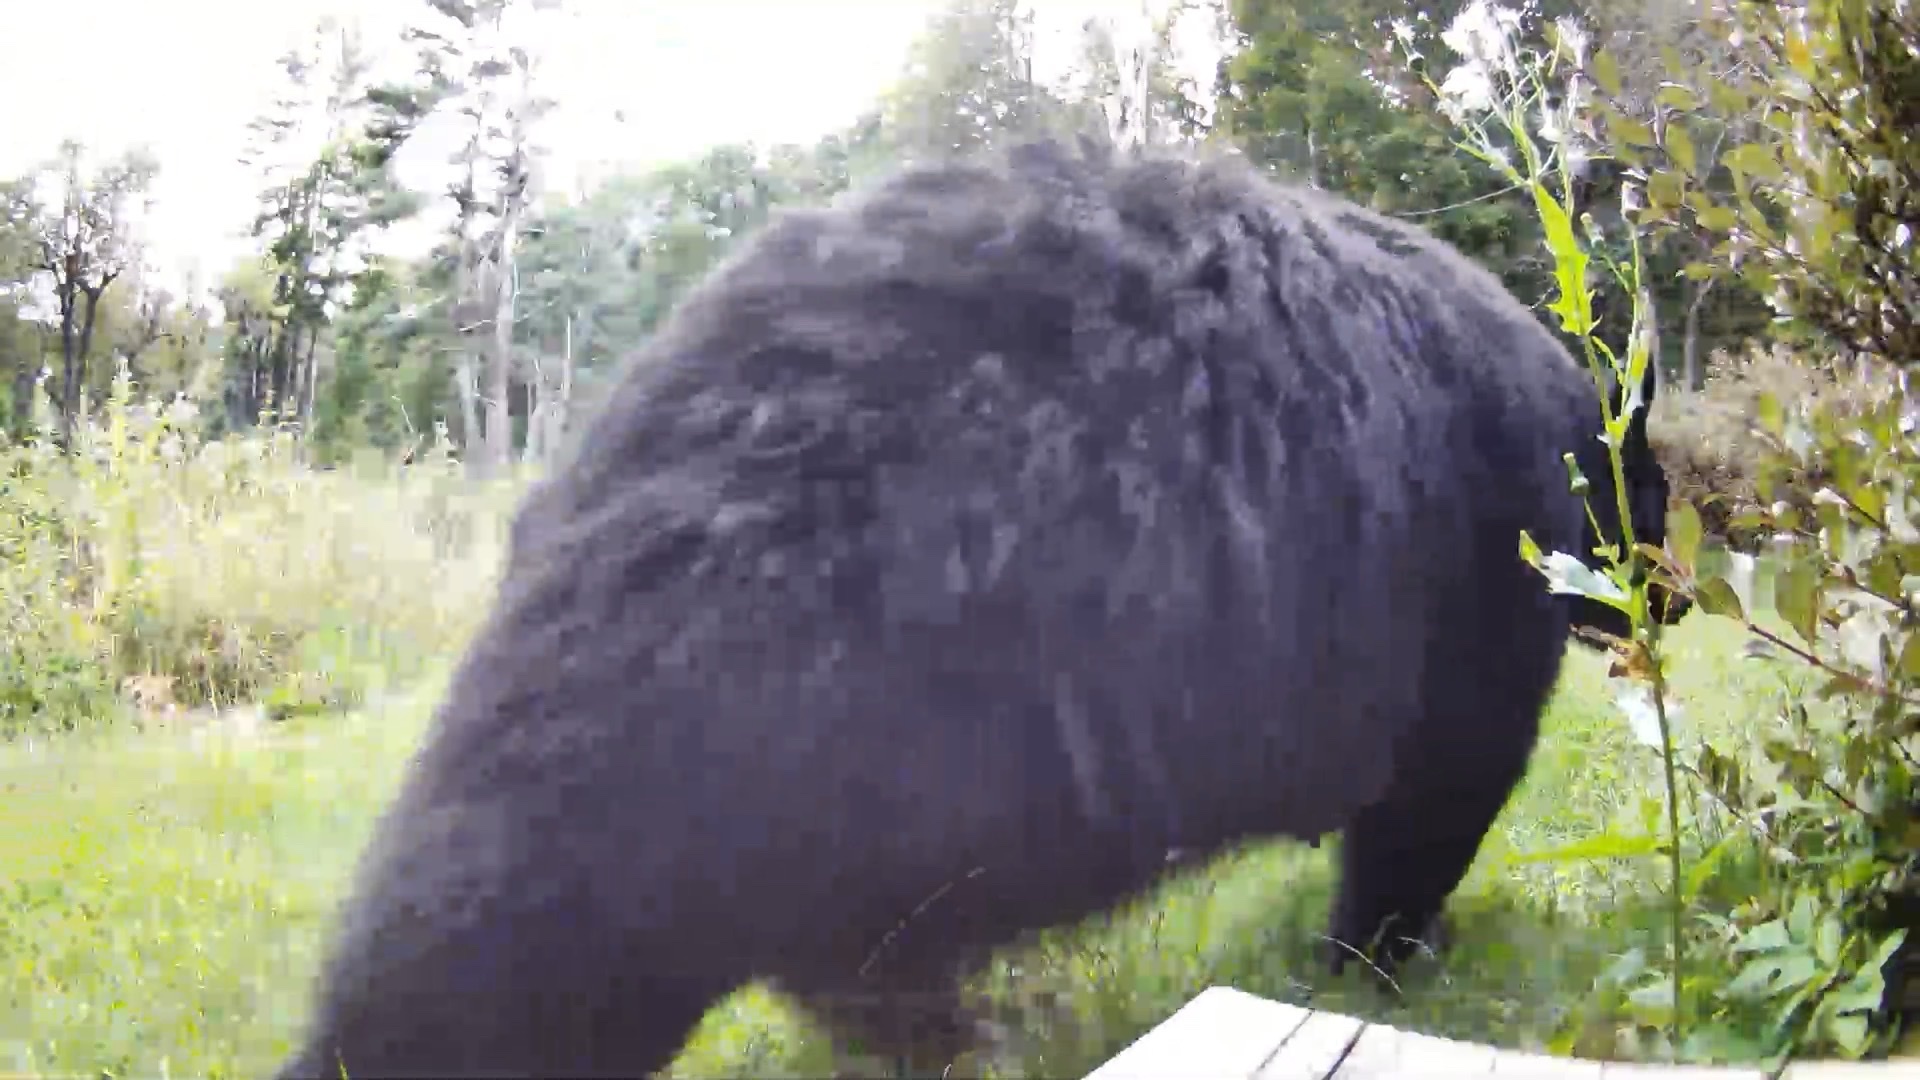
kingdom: Animalia
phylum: Chordata
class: Mammalia
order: Carnivora
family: Ursidae
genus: Ursus
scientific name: Ursus americanus
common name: American black bear
